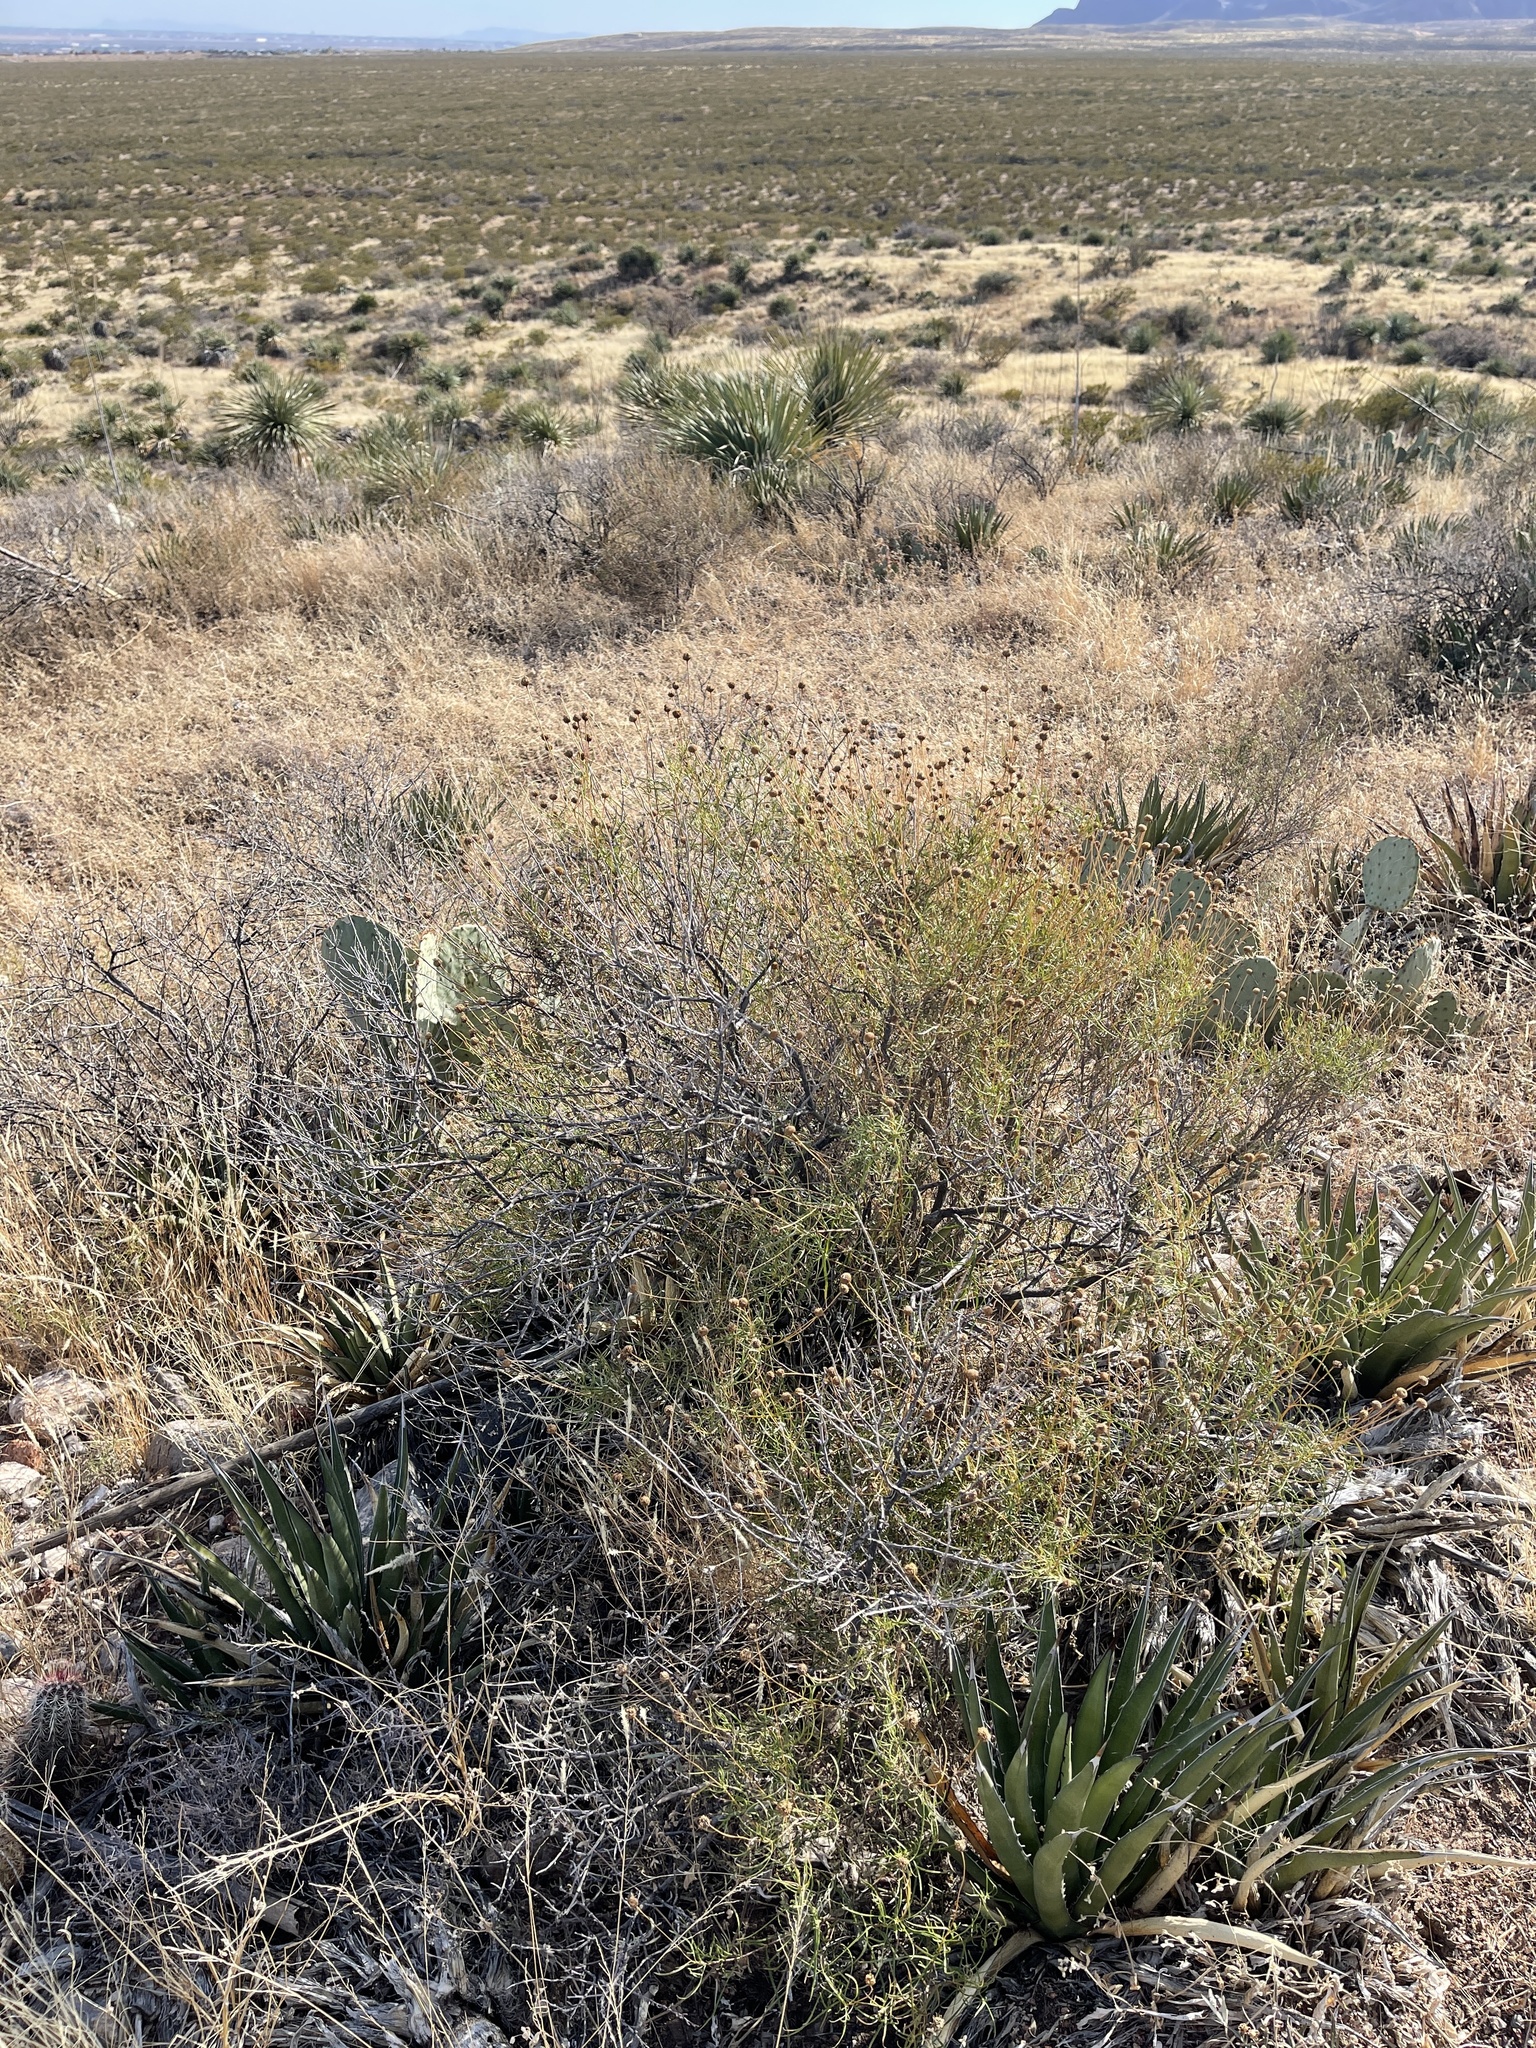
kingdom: Plantae
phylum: Tracheophyta
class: Magnoliopsida
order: Asterales
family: Asteraceae
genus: Sidneya
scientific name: Sidneya tenuifolia
